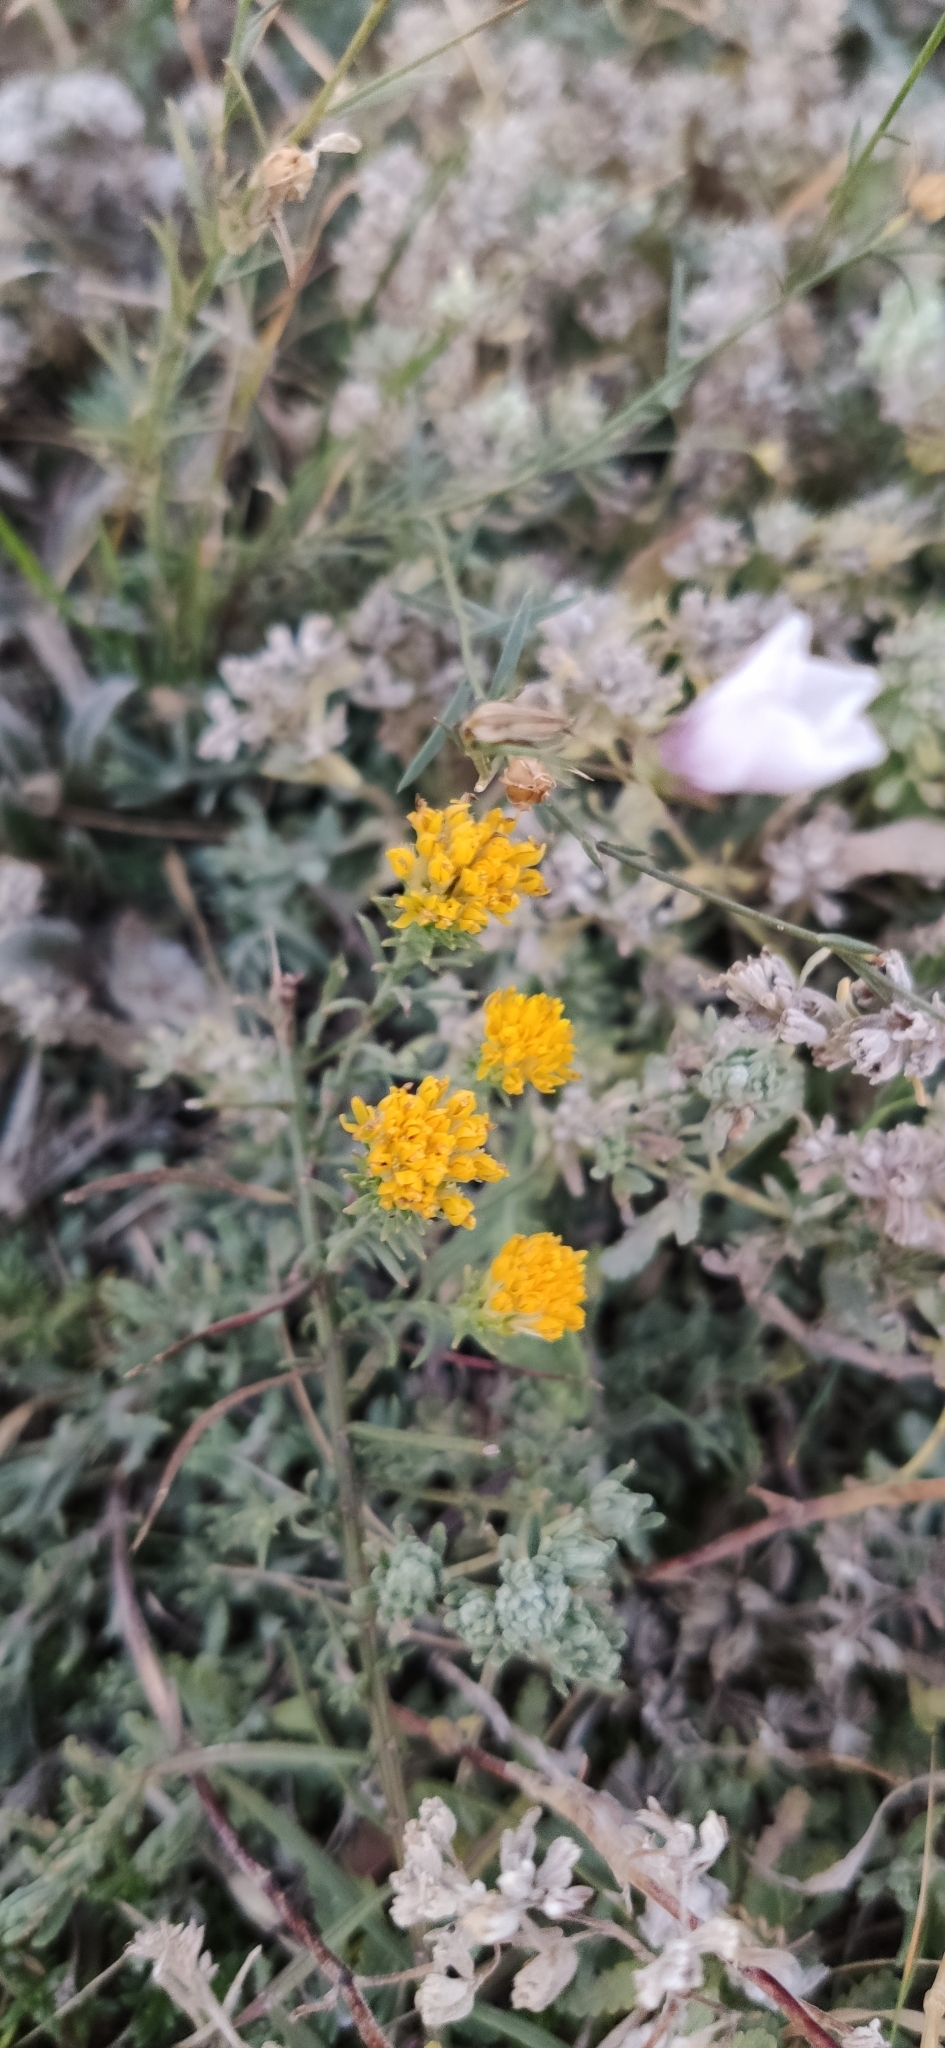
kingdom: Plantae
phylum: Tracheophyta
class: Magnoliopsida
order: Asterales
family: Asteraceae
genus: Galatella
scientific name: Galatella villosa
